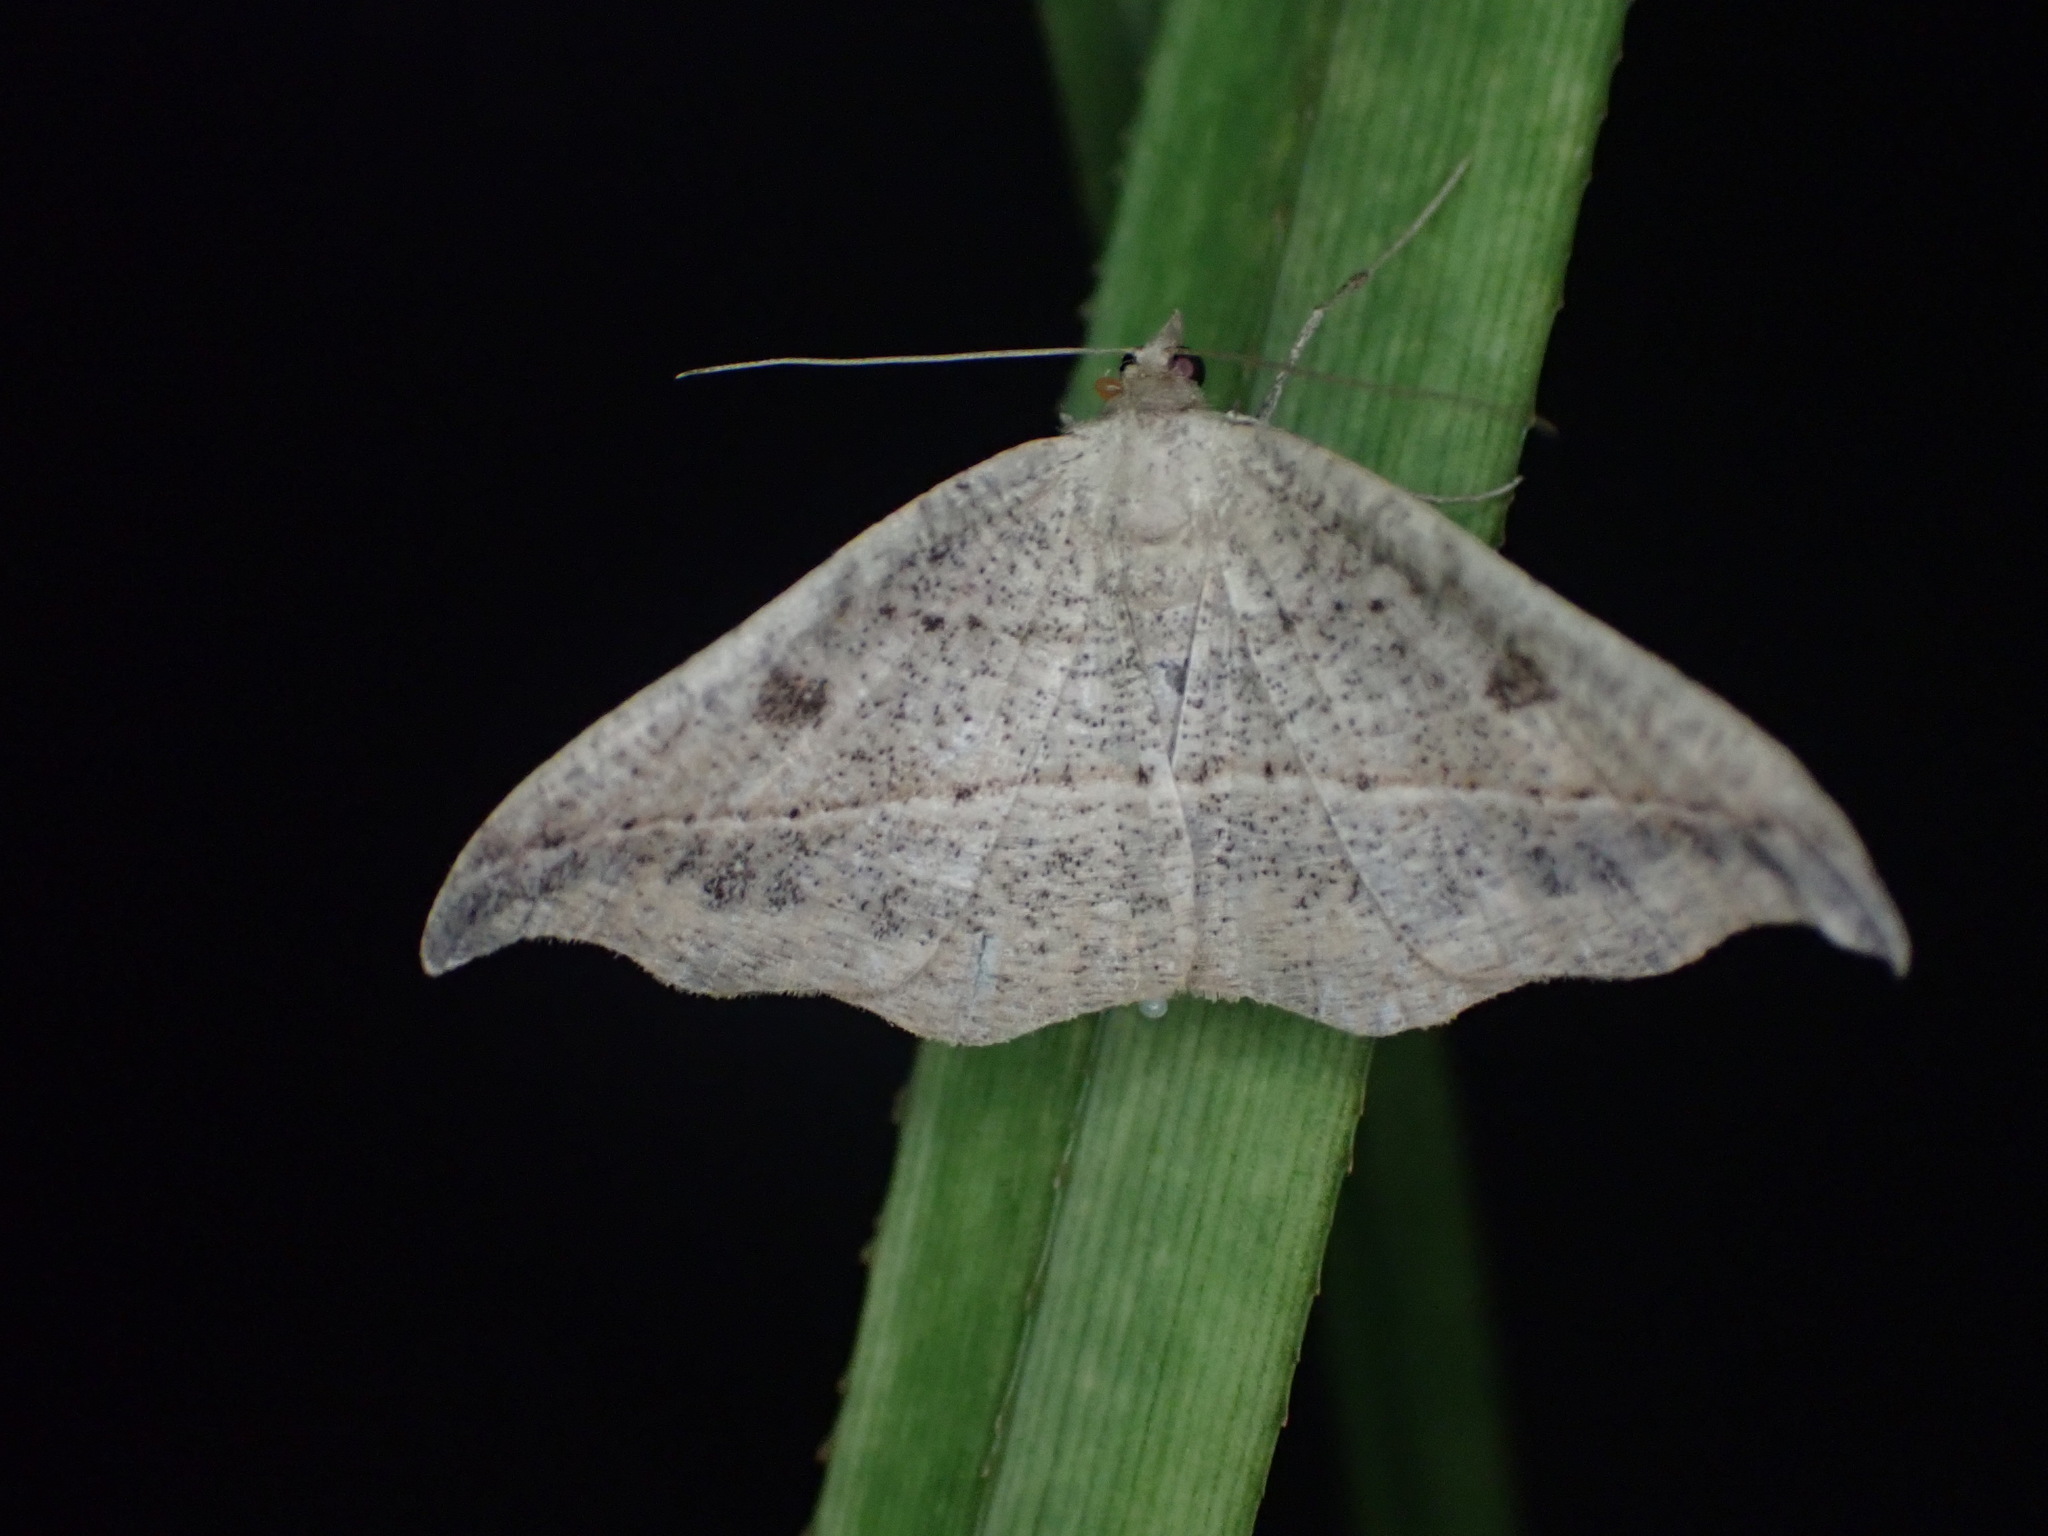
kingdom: Animalia
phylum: Arthropoda
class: Insecta
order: Lepidoptera
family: Geometridae
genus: Sarisa
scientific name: Sarisa muriferata
